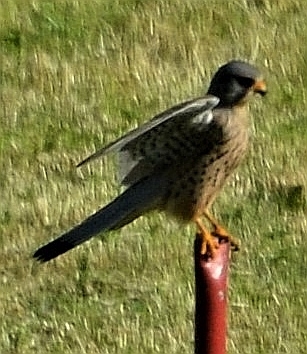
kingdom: Animalia
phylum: Chordata
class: Aves
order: Falconiformes
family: Falconidae
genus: Falco
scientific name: Falco tinnunculus
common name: Common kestrel
